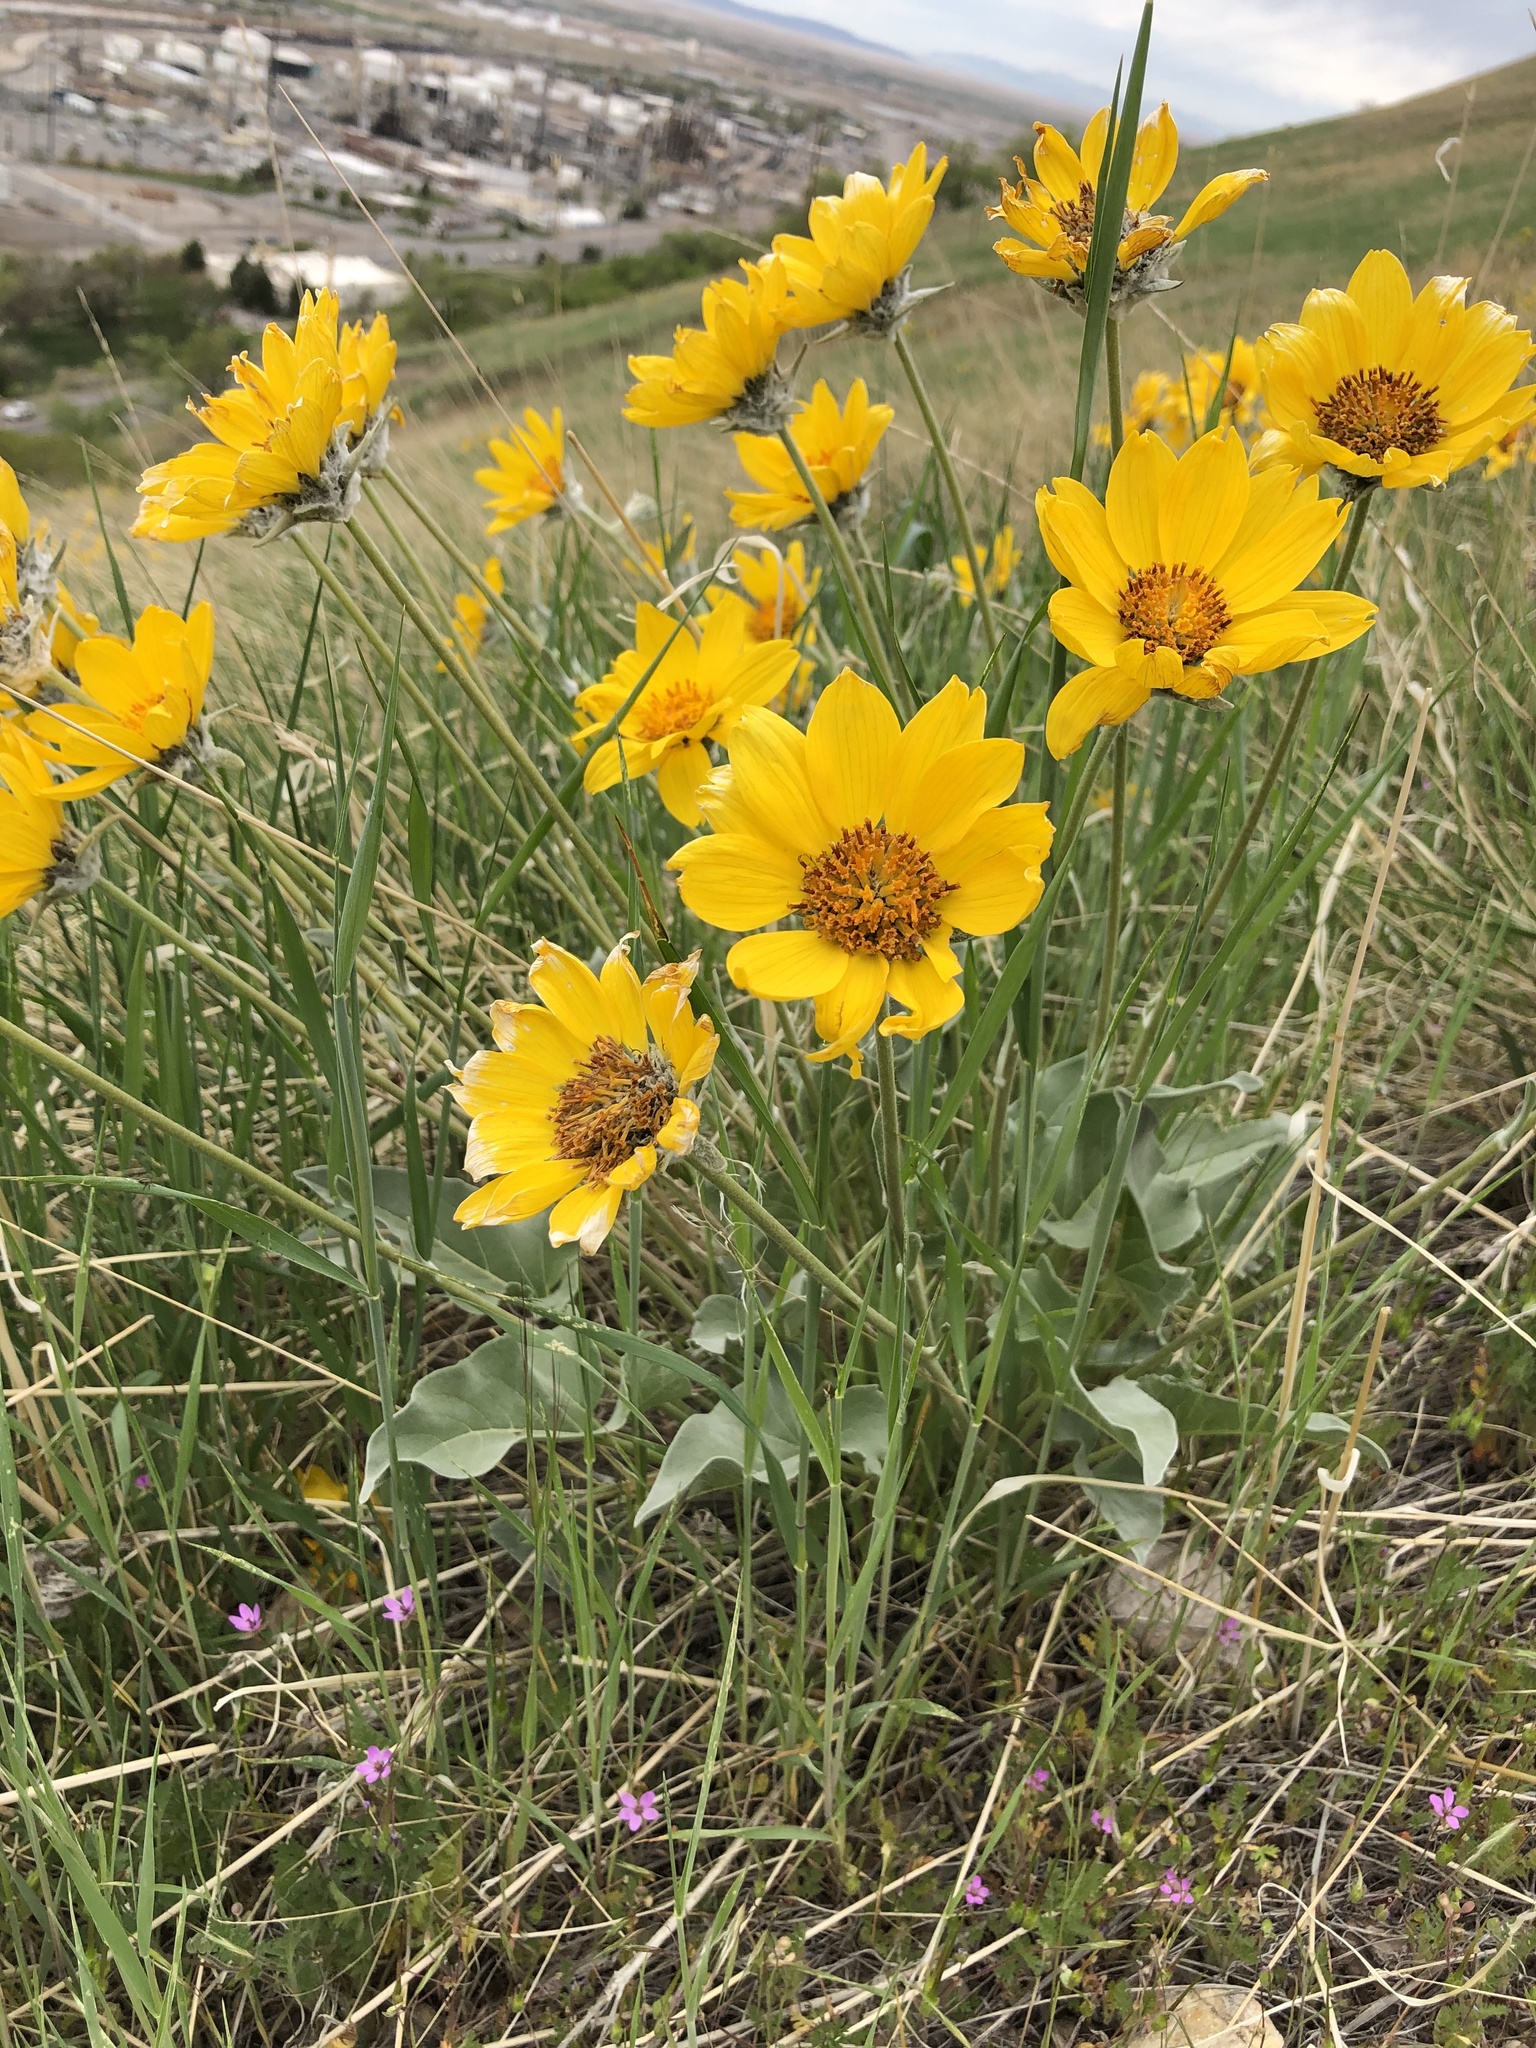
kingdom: Plantae
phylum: Tracheophyta
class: Magnoliopsida
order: Asterales
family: Asteraceae
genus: Wyethia
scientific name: Wyethia sagittata
